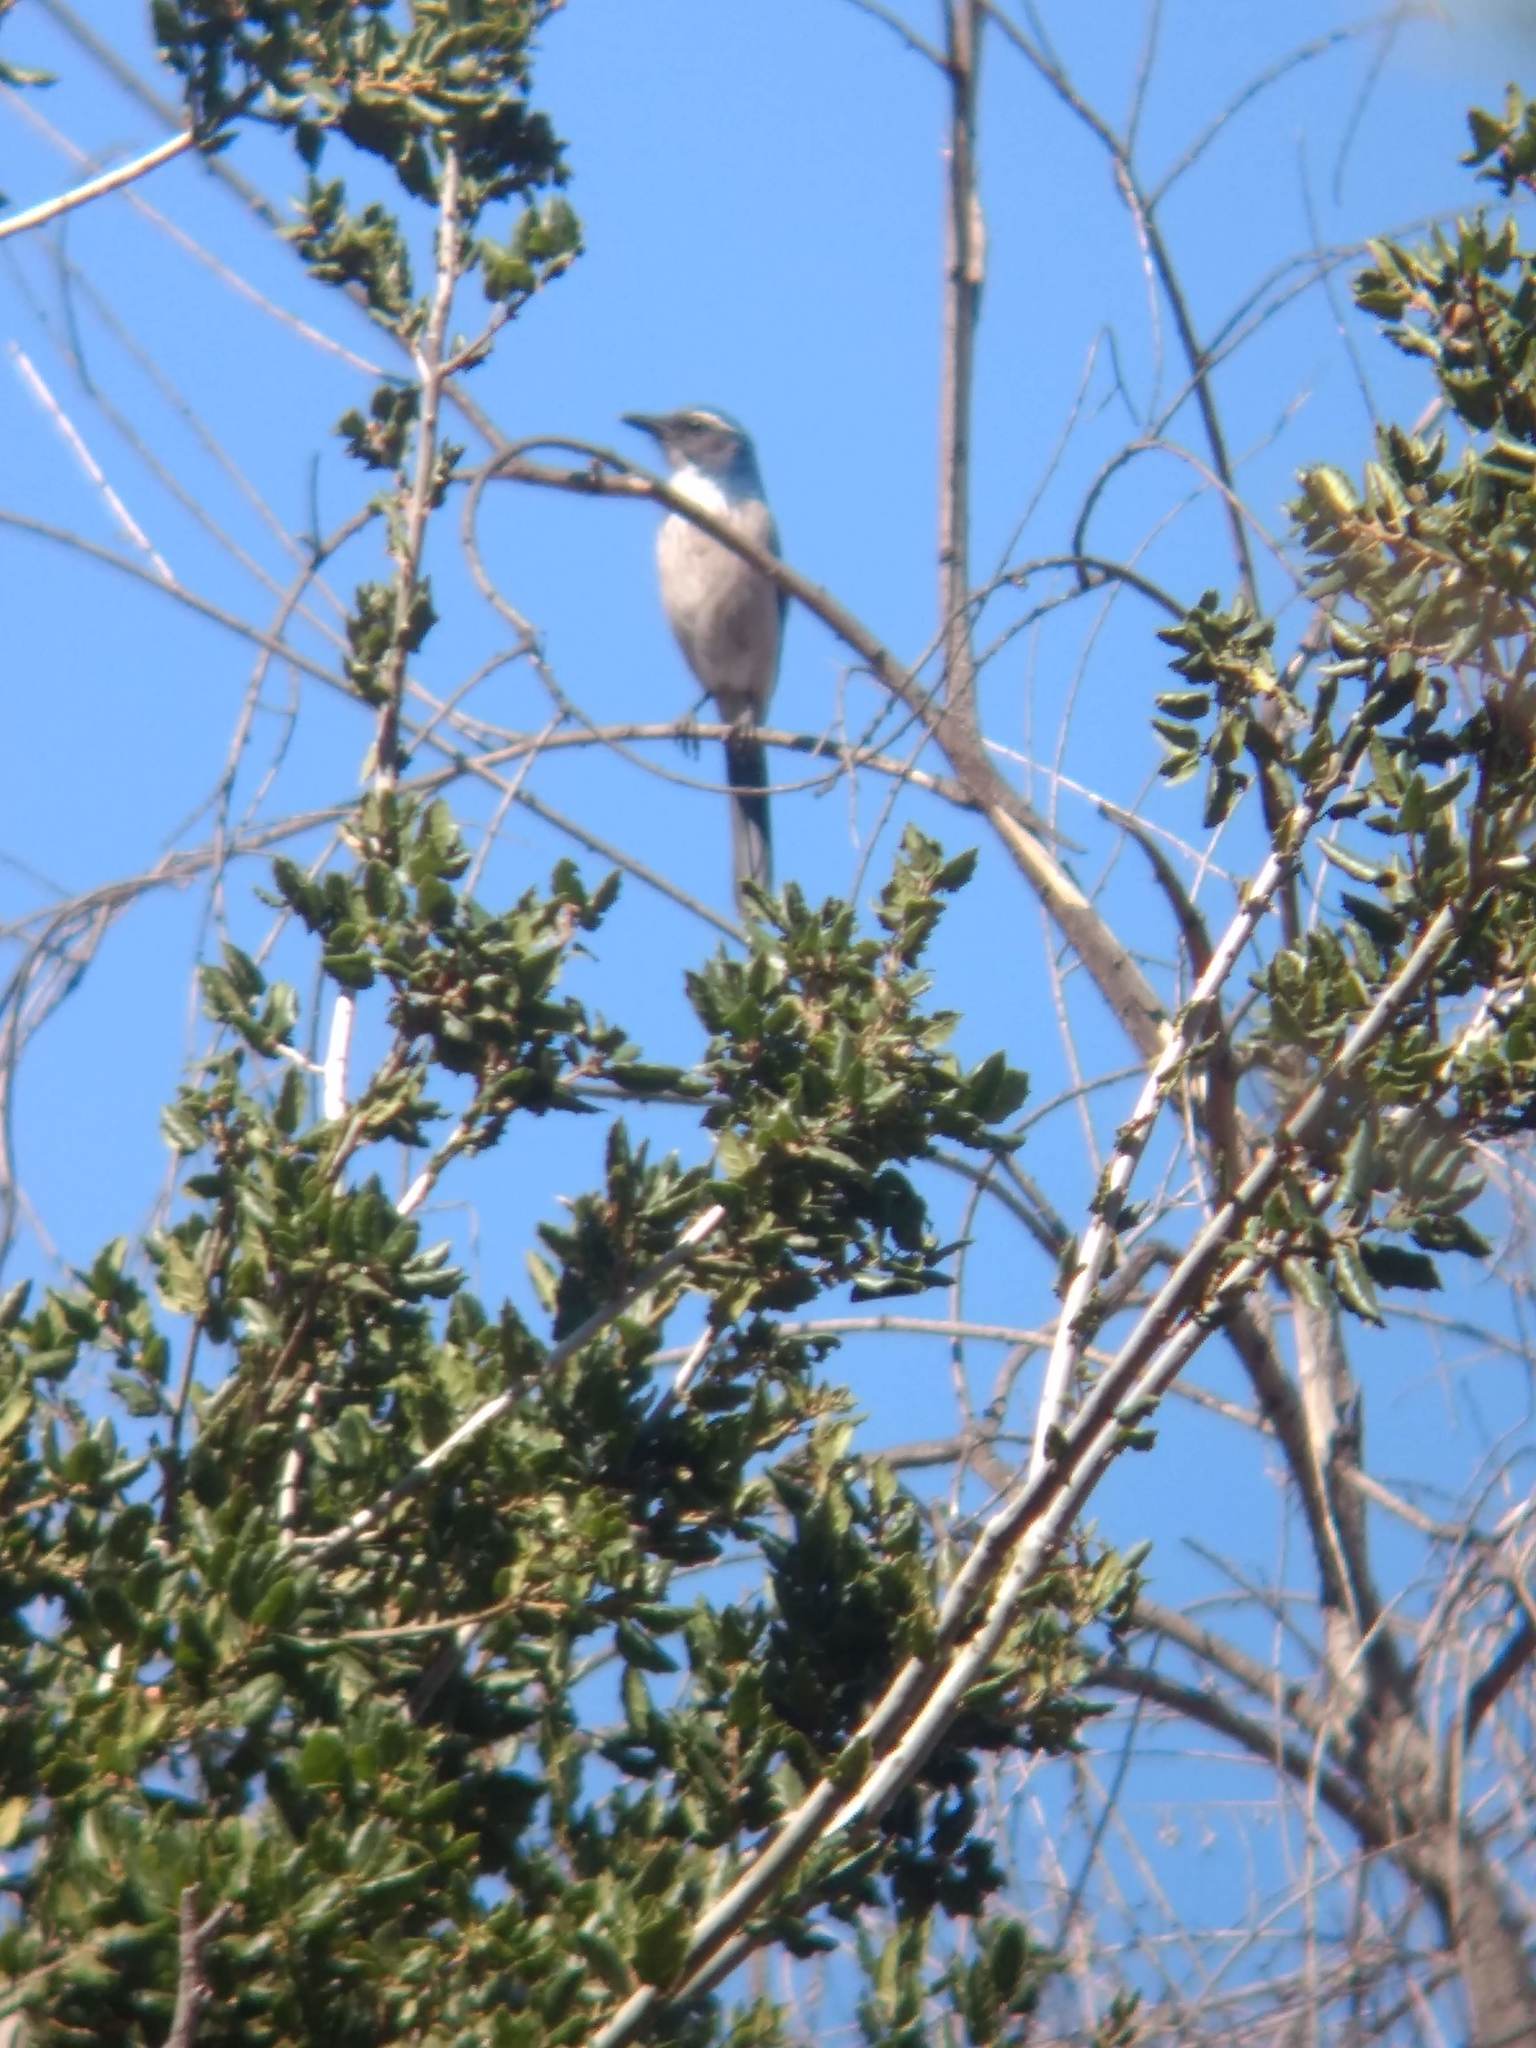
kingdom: Animalia
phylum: Chordata
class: Aves
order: Passeriformes
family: Corvidae
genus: Aphelocoma
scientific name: Aphelocoma californica
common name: California scrub-jay
